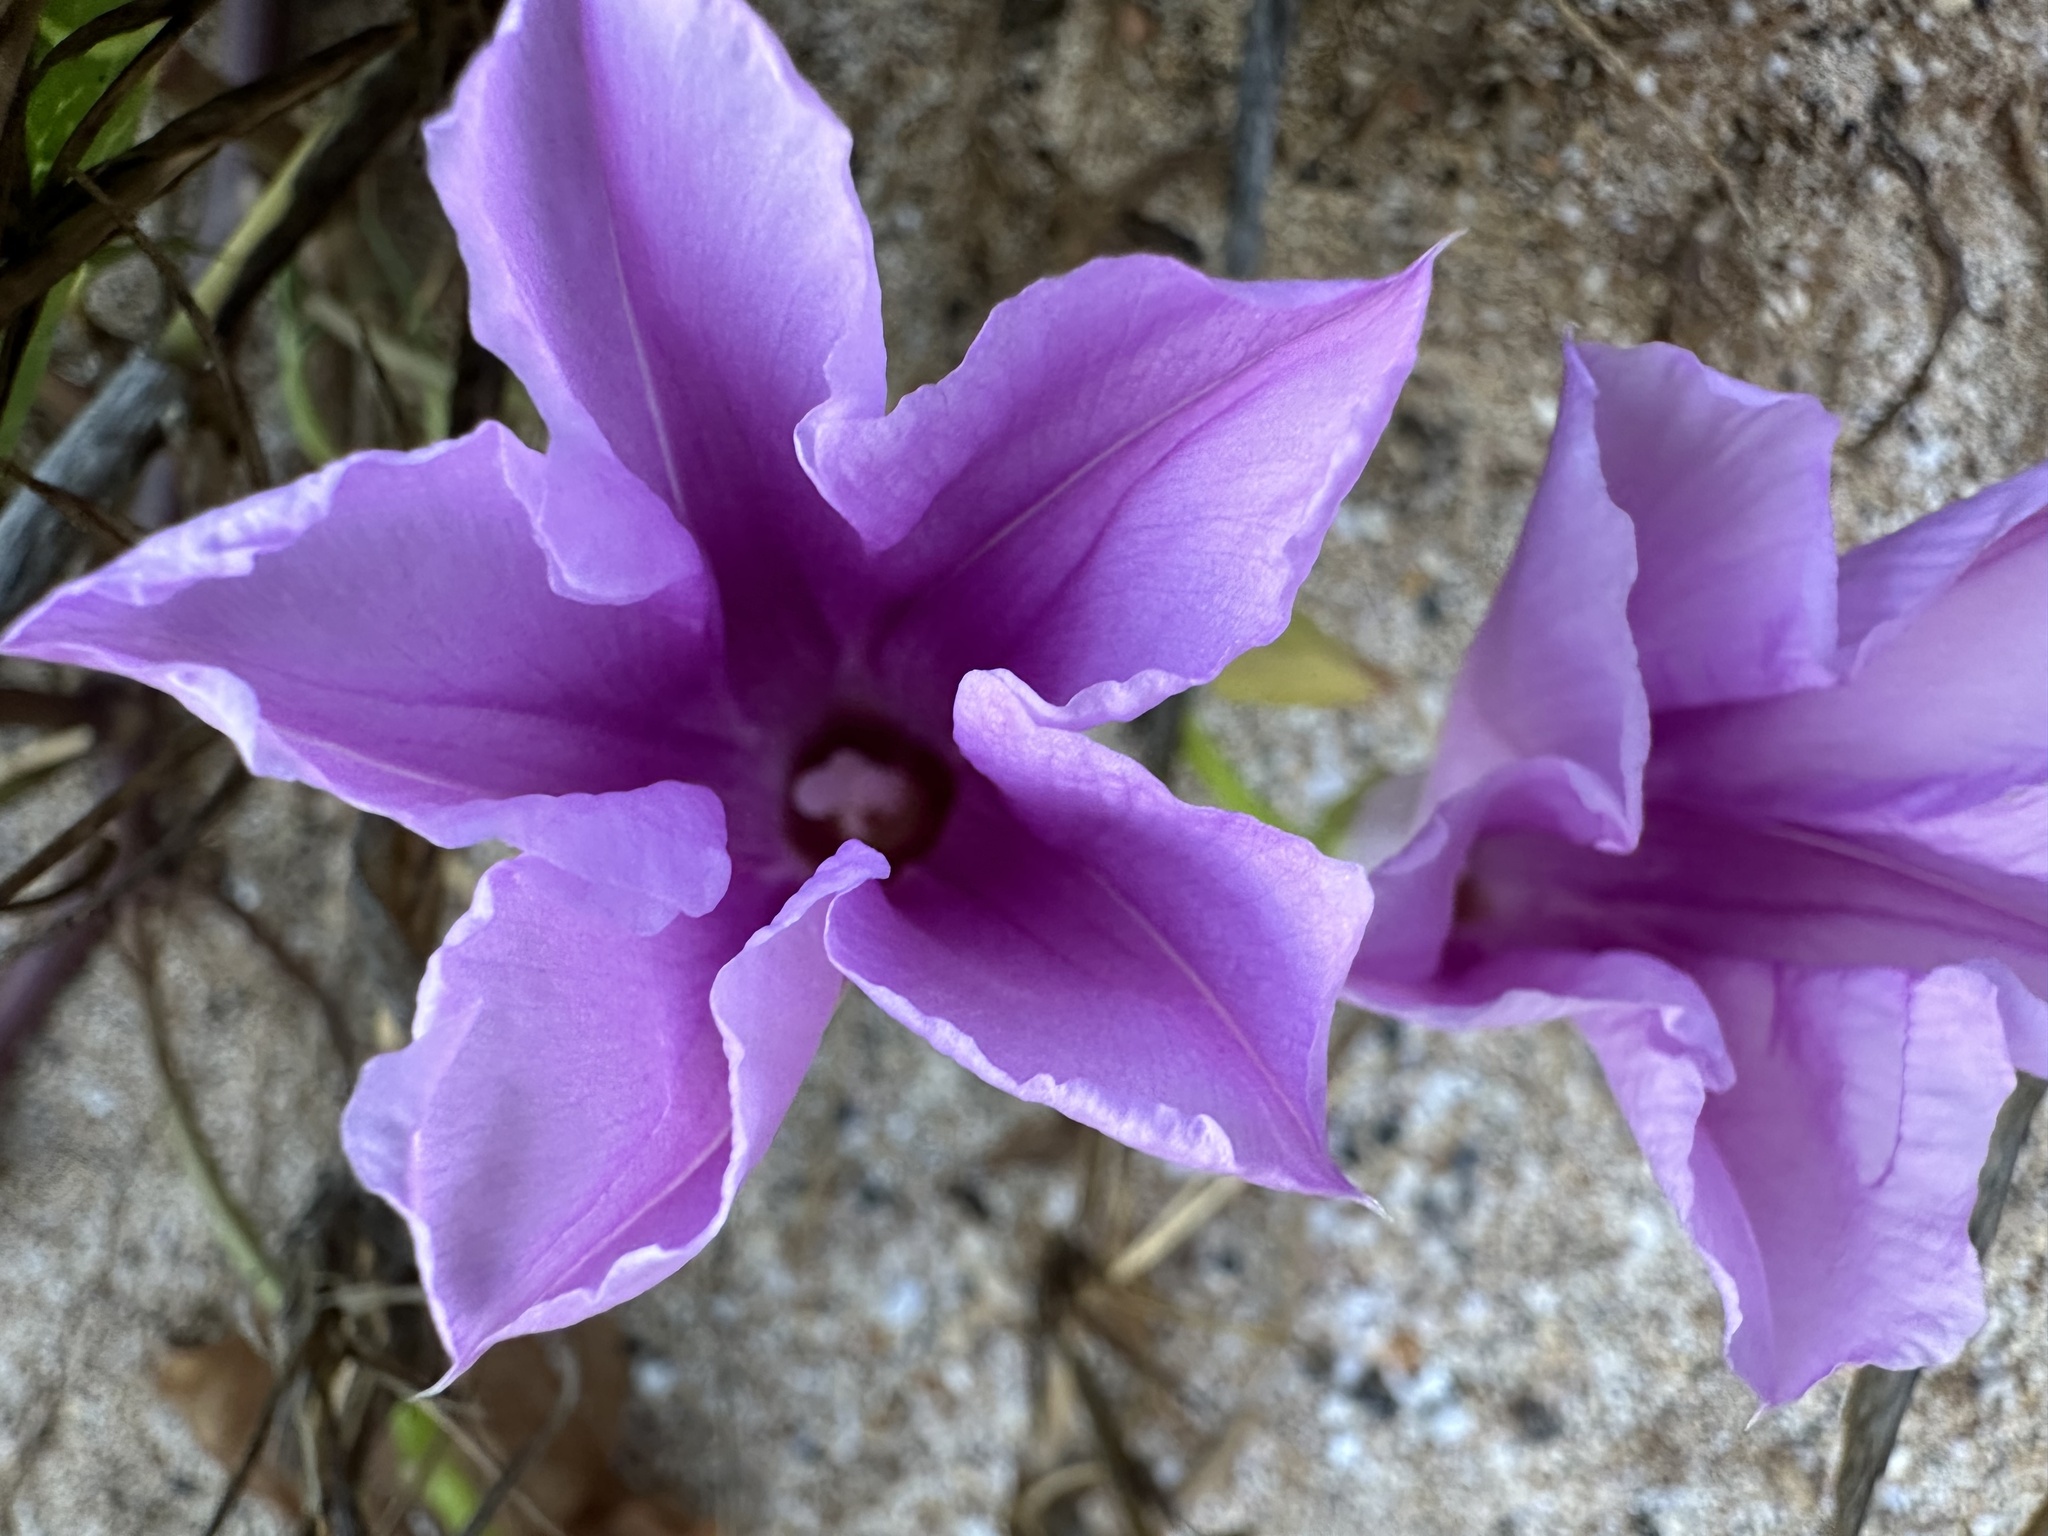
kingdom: Plantae
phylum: Tracheophyta
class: Magnoliopsida
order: Solanales
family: Convolvulaceae
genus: Ipomoea
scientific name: Ipomoea pes-caprae
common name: Beach morning glory
